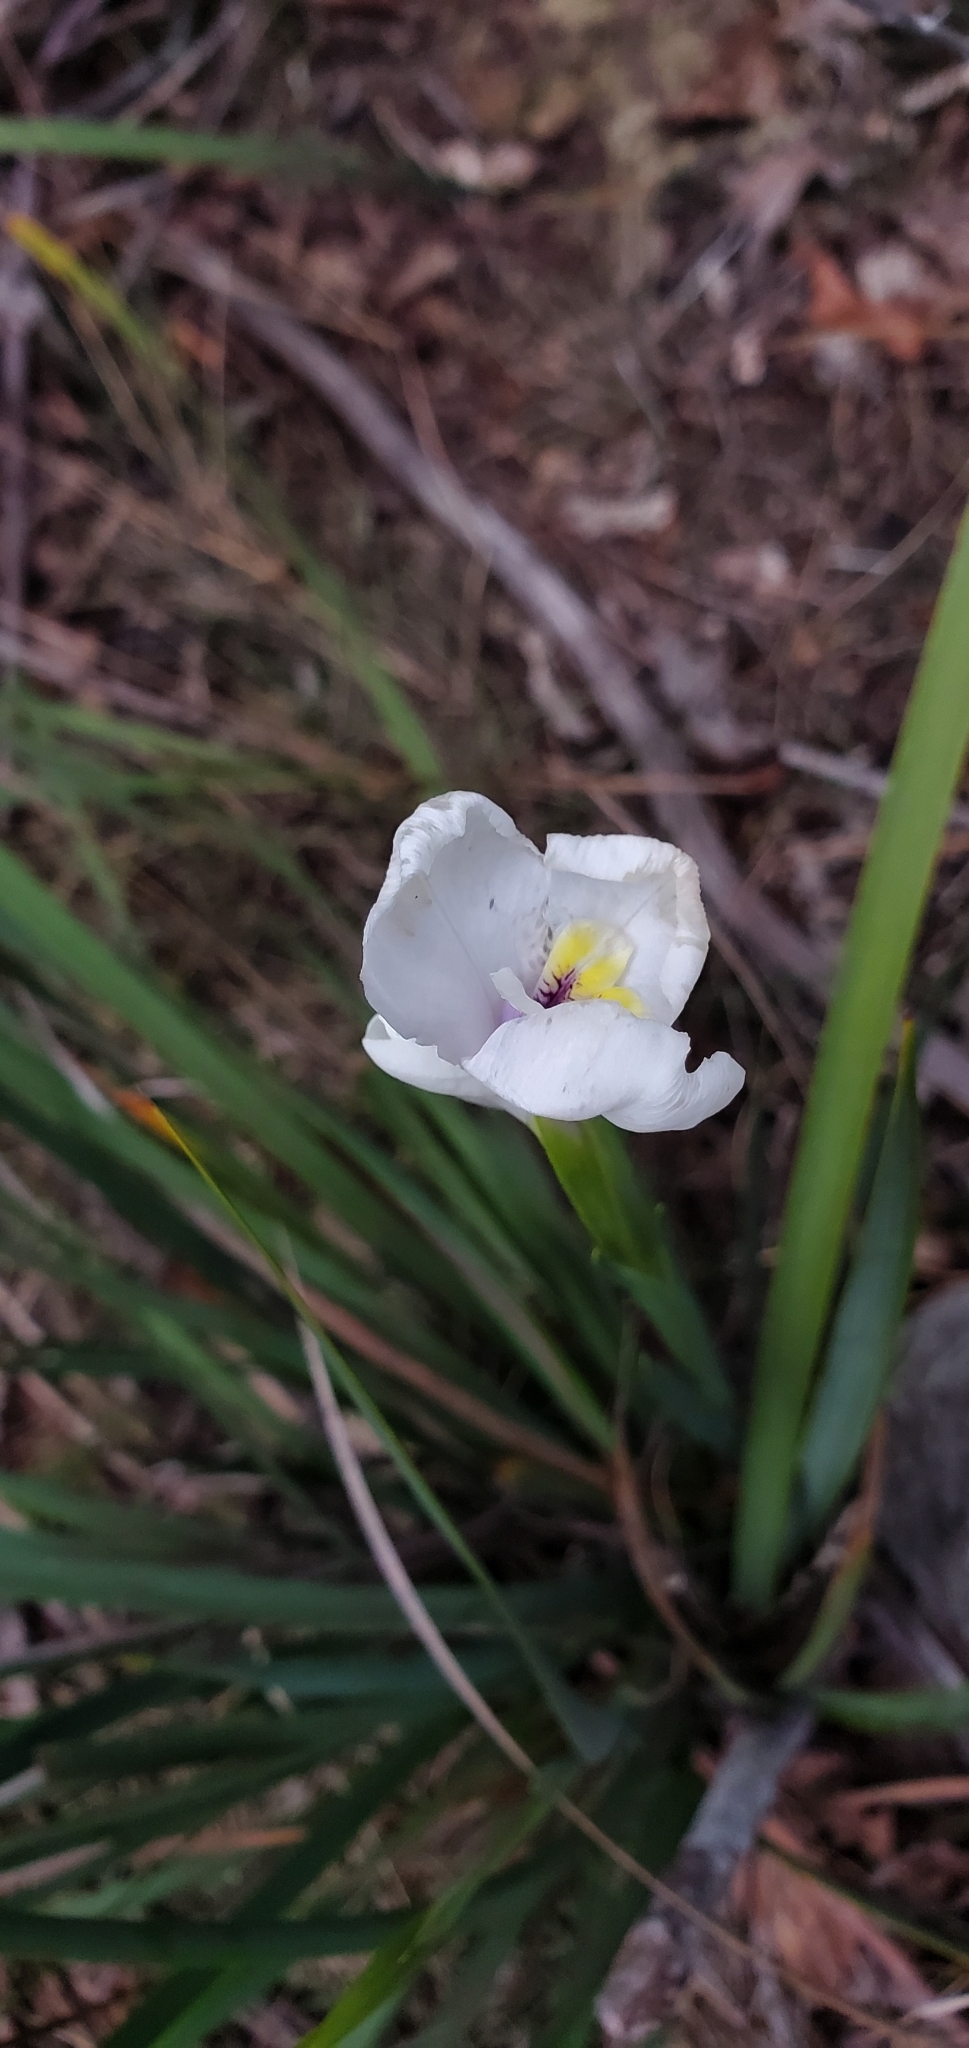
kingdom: Plantae
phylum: Tracheophyta
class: Liliopsida
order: Asparagales
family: Iridaceae
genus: Diplarrena
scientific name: Diplarrena moraea
